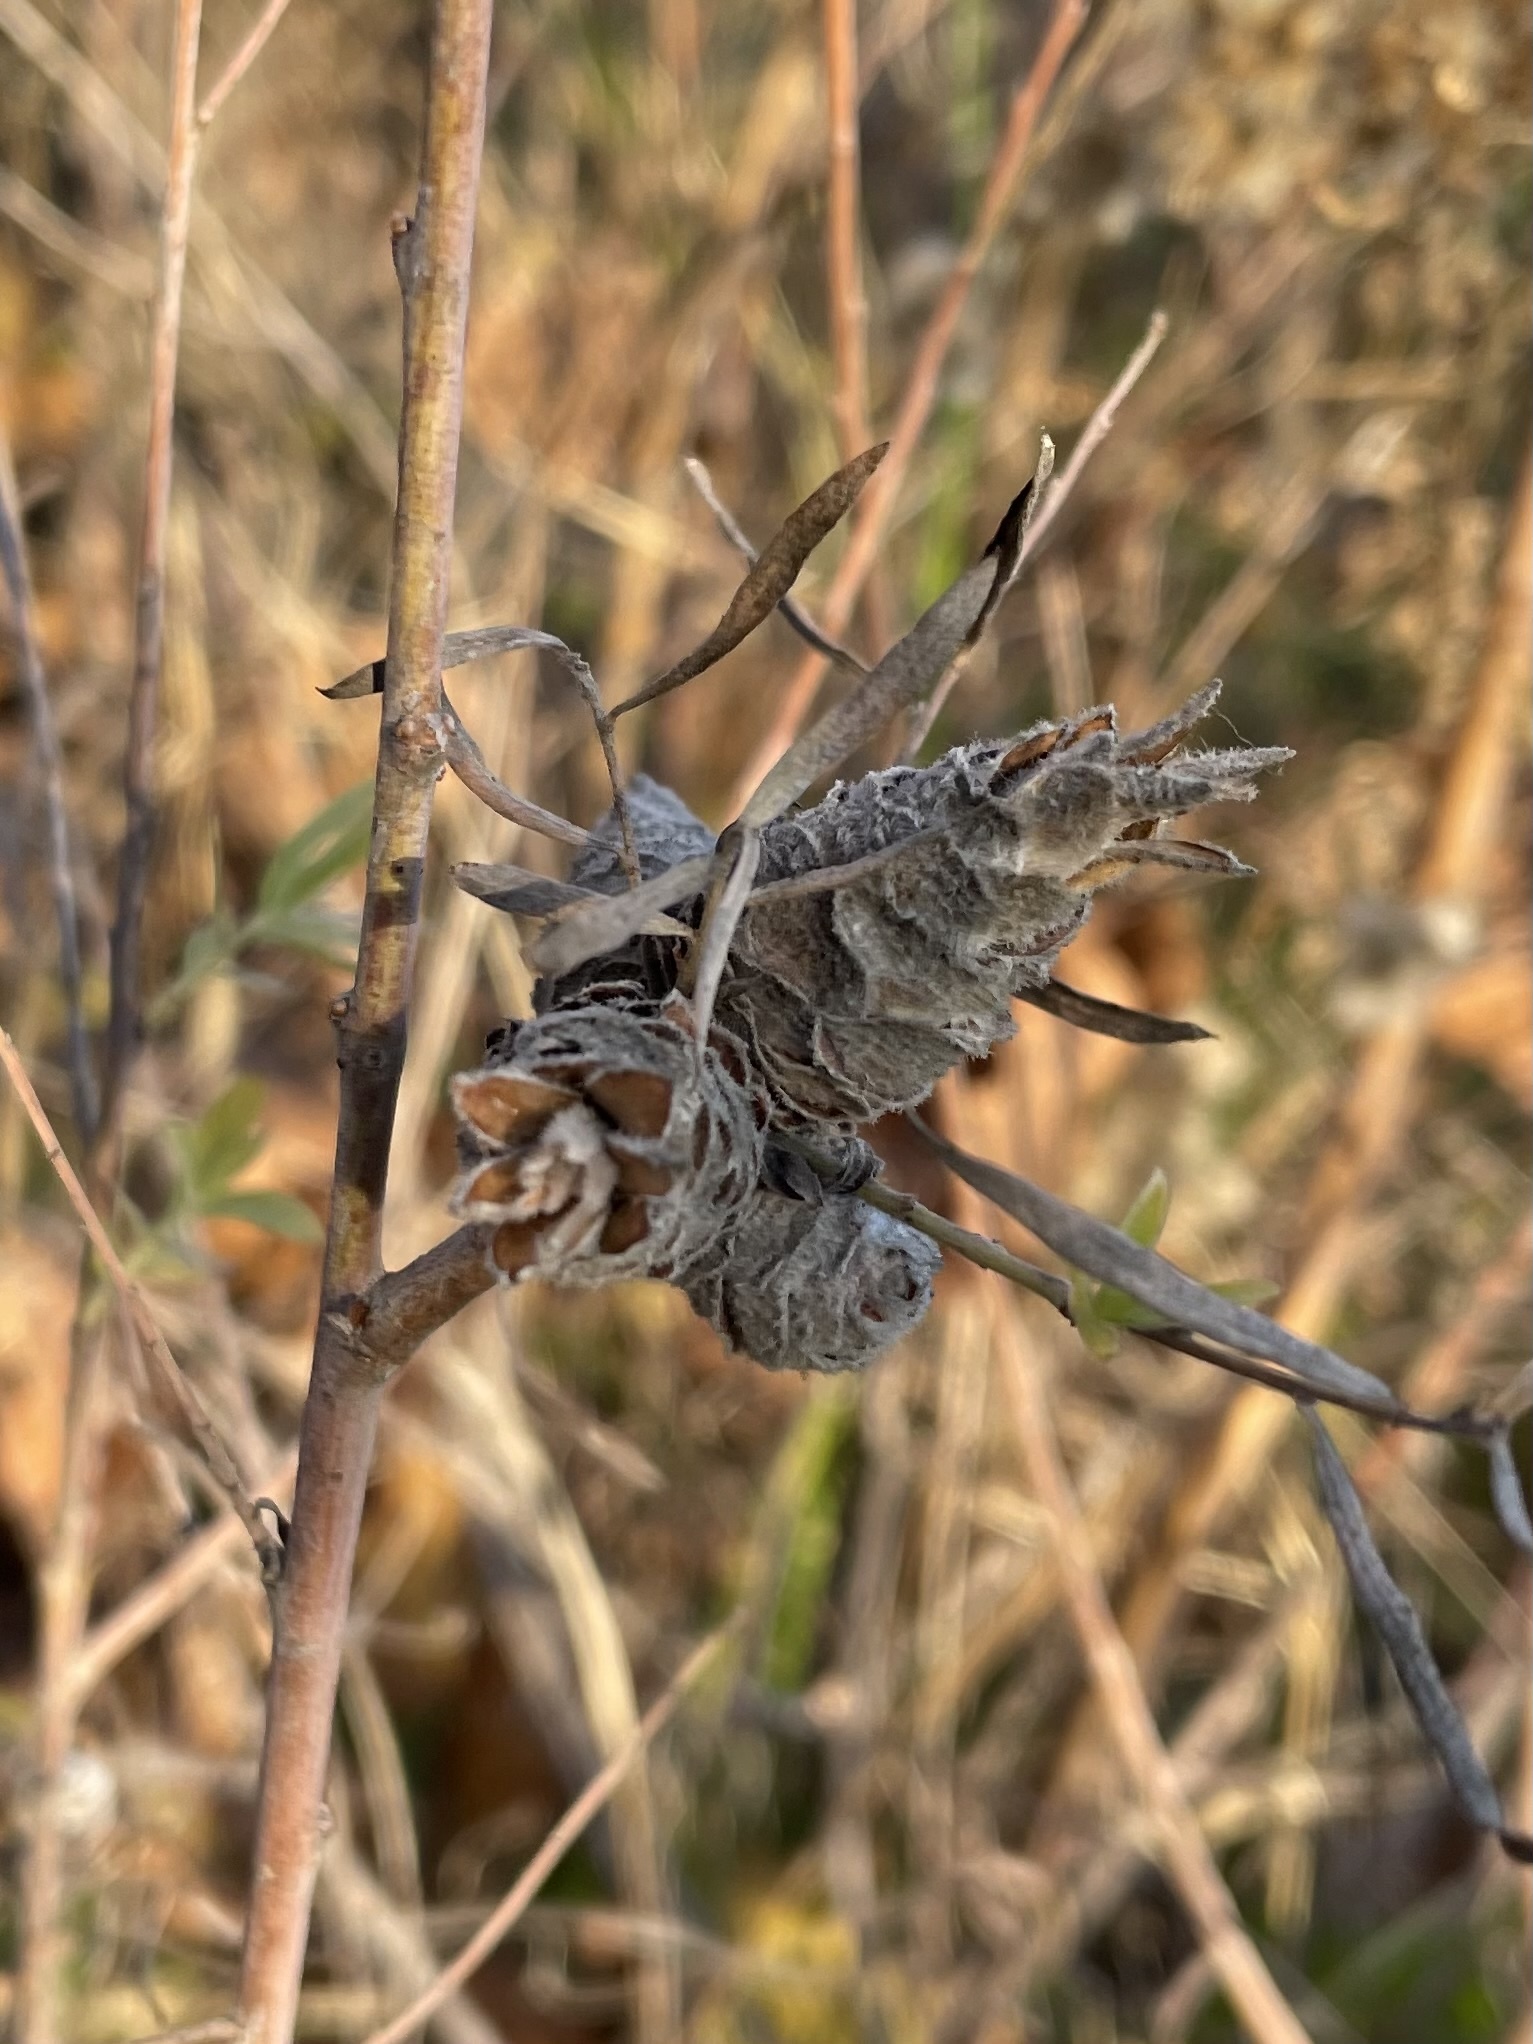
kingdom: Animalia
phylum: Arthropoda
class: Insecta
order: Diptera
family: Cecidomyiidae
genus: Rabdophaga
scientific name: Rabdophaga strobiloides
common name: Willow pinecone gall midge
